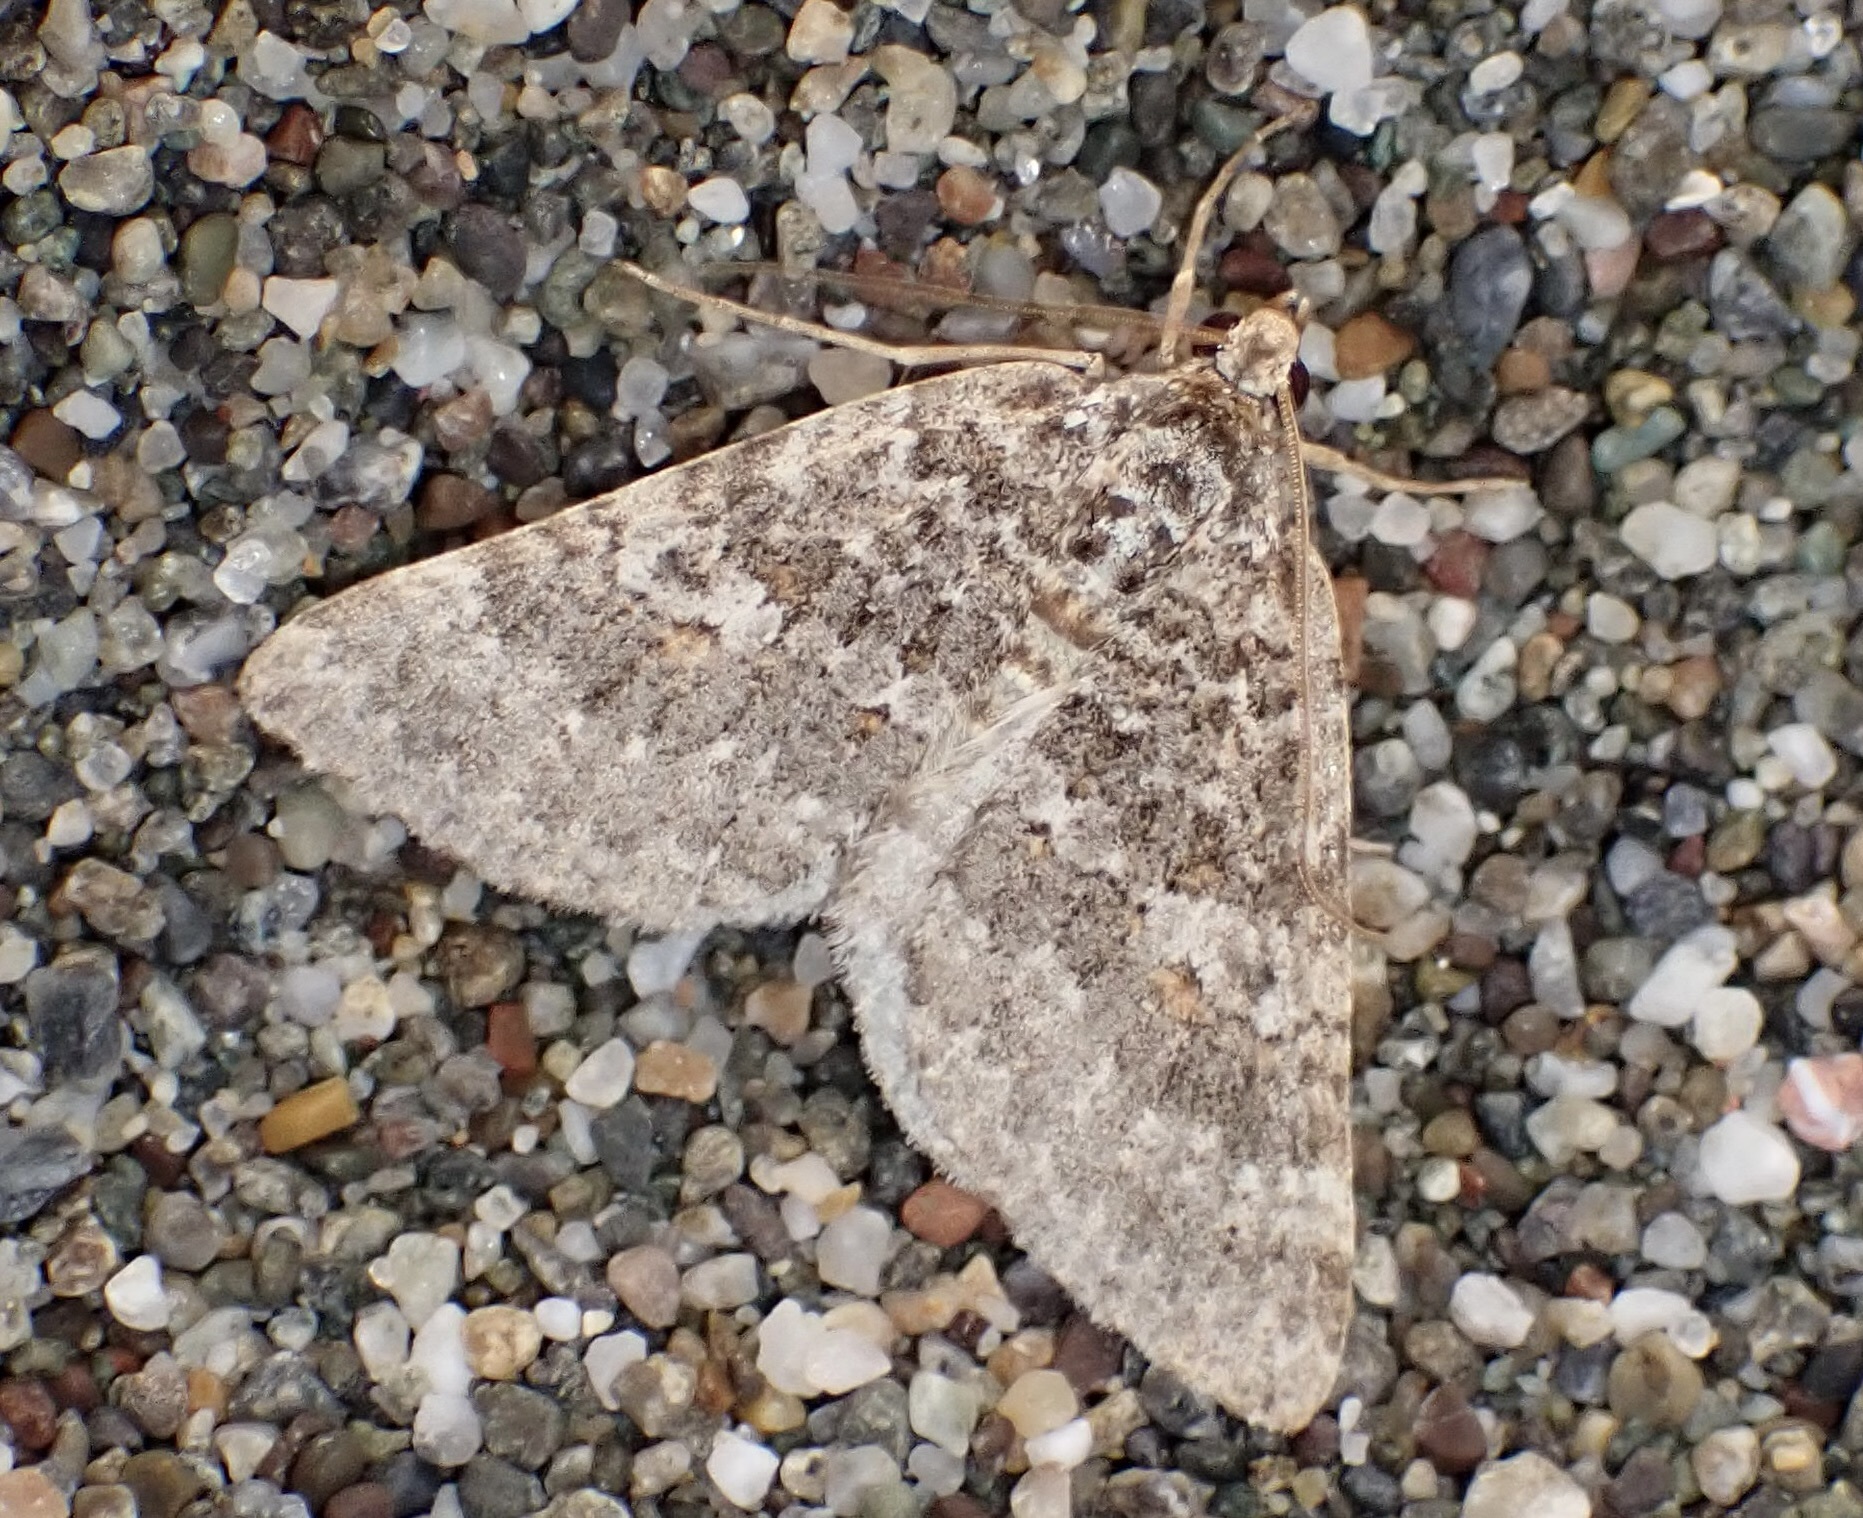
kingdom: Animalia
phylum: Arthropoda
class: Insecta
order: Lepidoptera
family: Geometridae
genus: Euphyia
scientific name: Euphyia implicata
